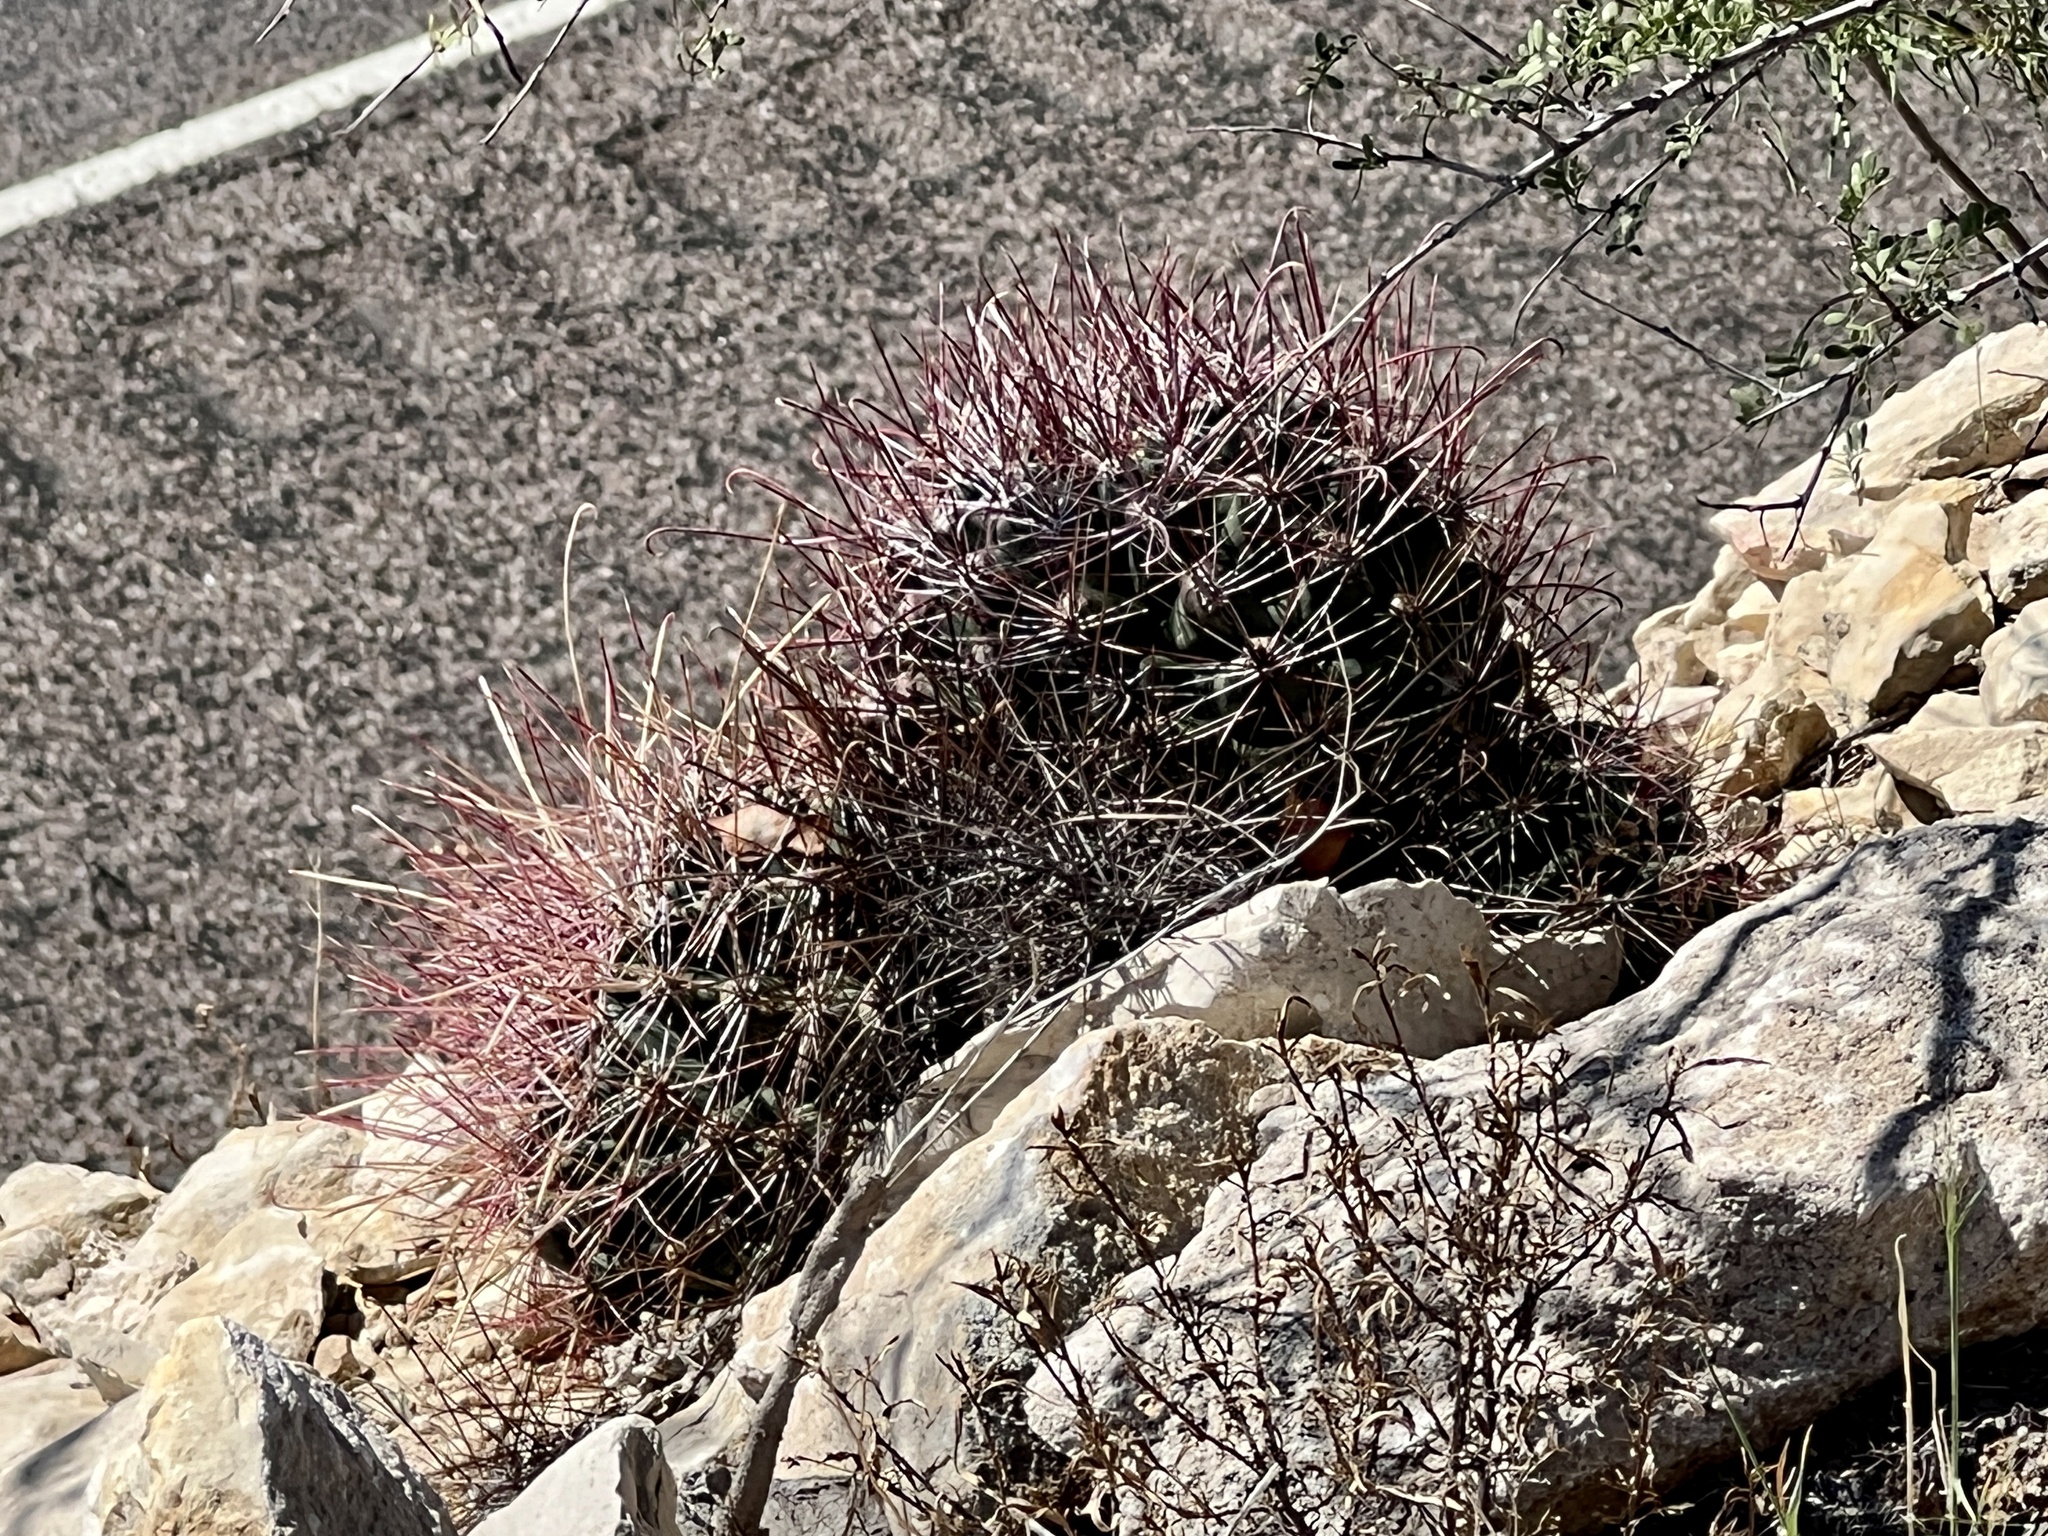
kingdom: Plantae
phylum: Tracheophyta
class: Magnoliopsida
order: Caryophyllales
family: Cactaceae
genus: Bisnaga
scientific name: Bisnaga hamatacantha
